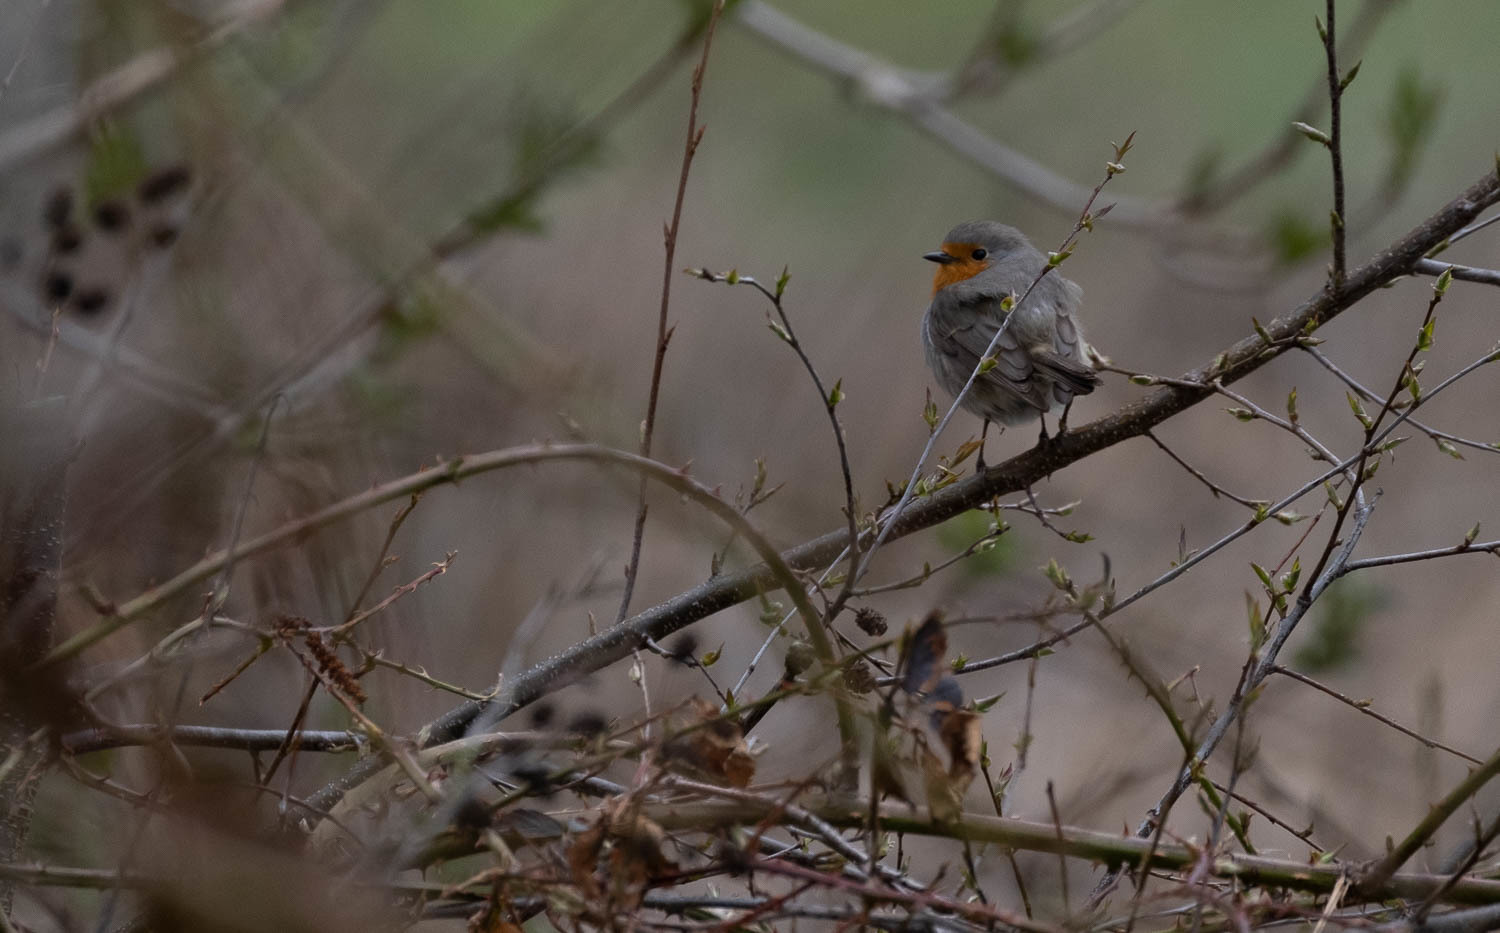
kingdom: Animalia
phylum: Chordata
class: Aves
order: Passeriformes
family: Muscicapidae
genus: Erithacus
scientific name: Erithacus rubecula
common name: European robin
